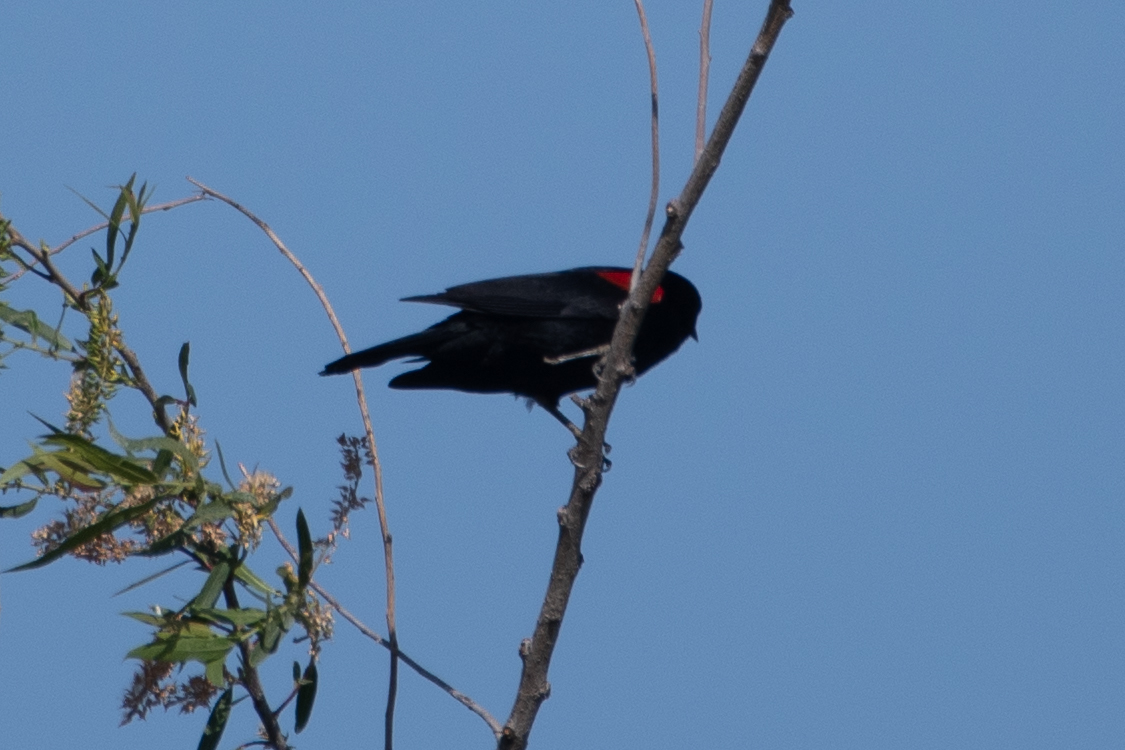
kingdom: Animalia
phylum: Chordata
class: Aves
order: Passeriformes
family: Icteridae
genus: Agelaius
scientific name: Agelaius phoeniceus
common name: Red-winged blackbird
